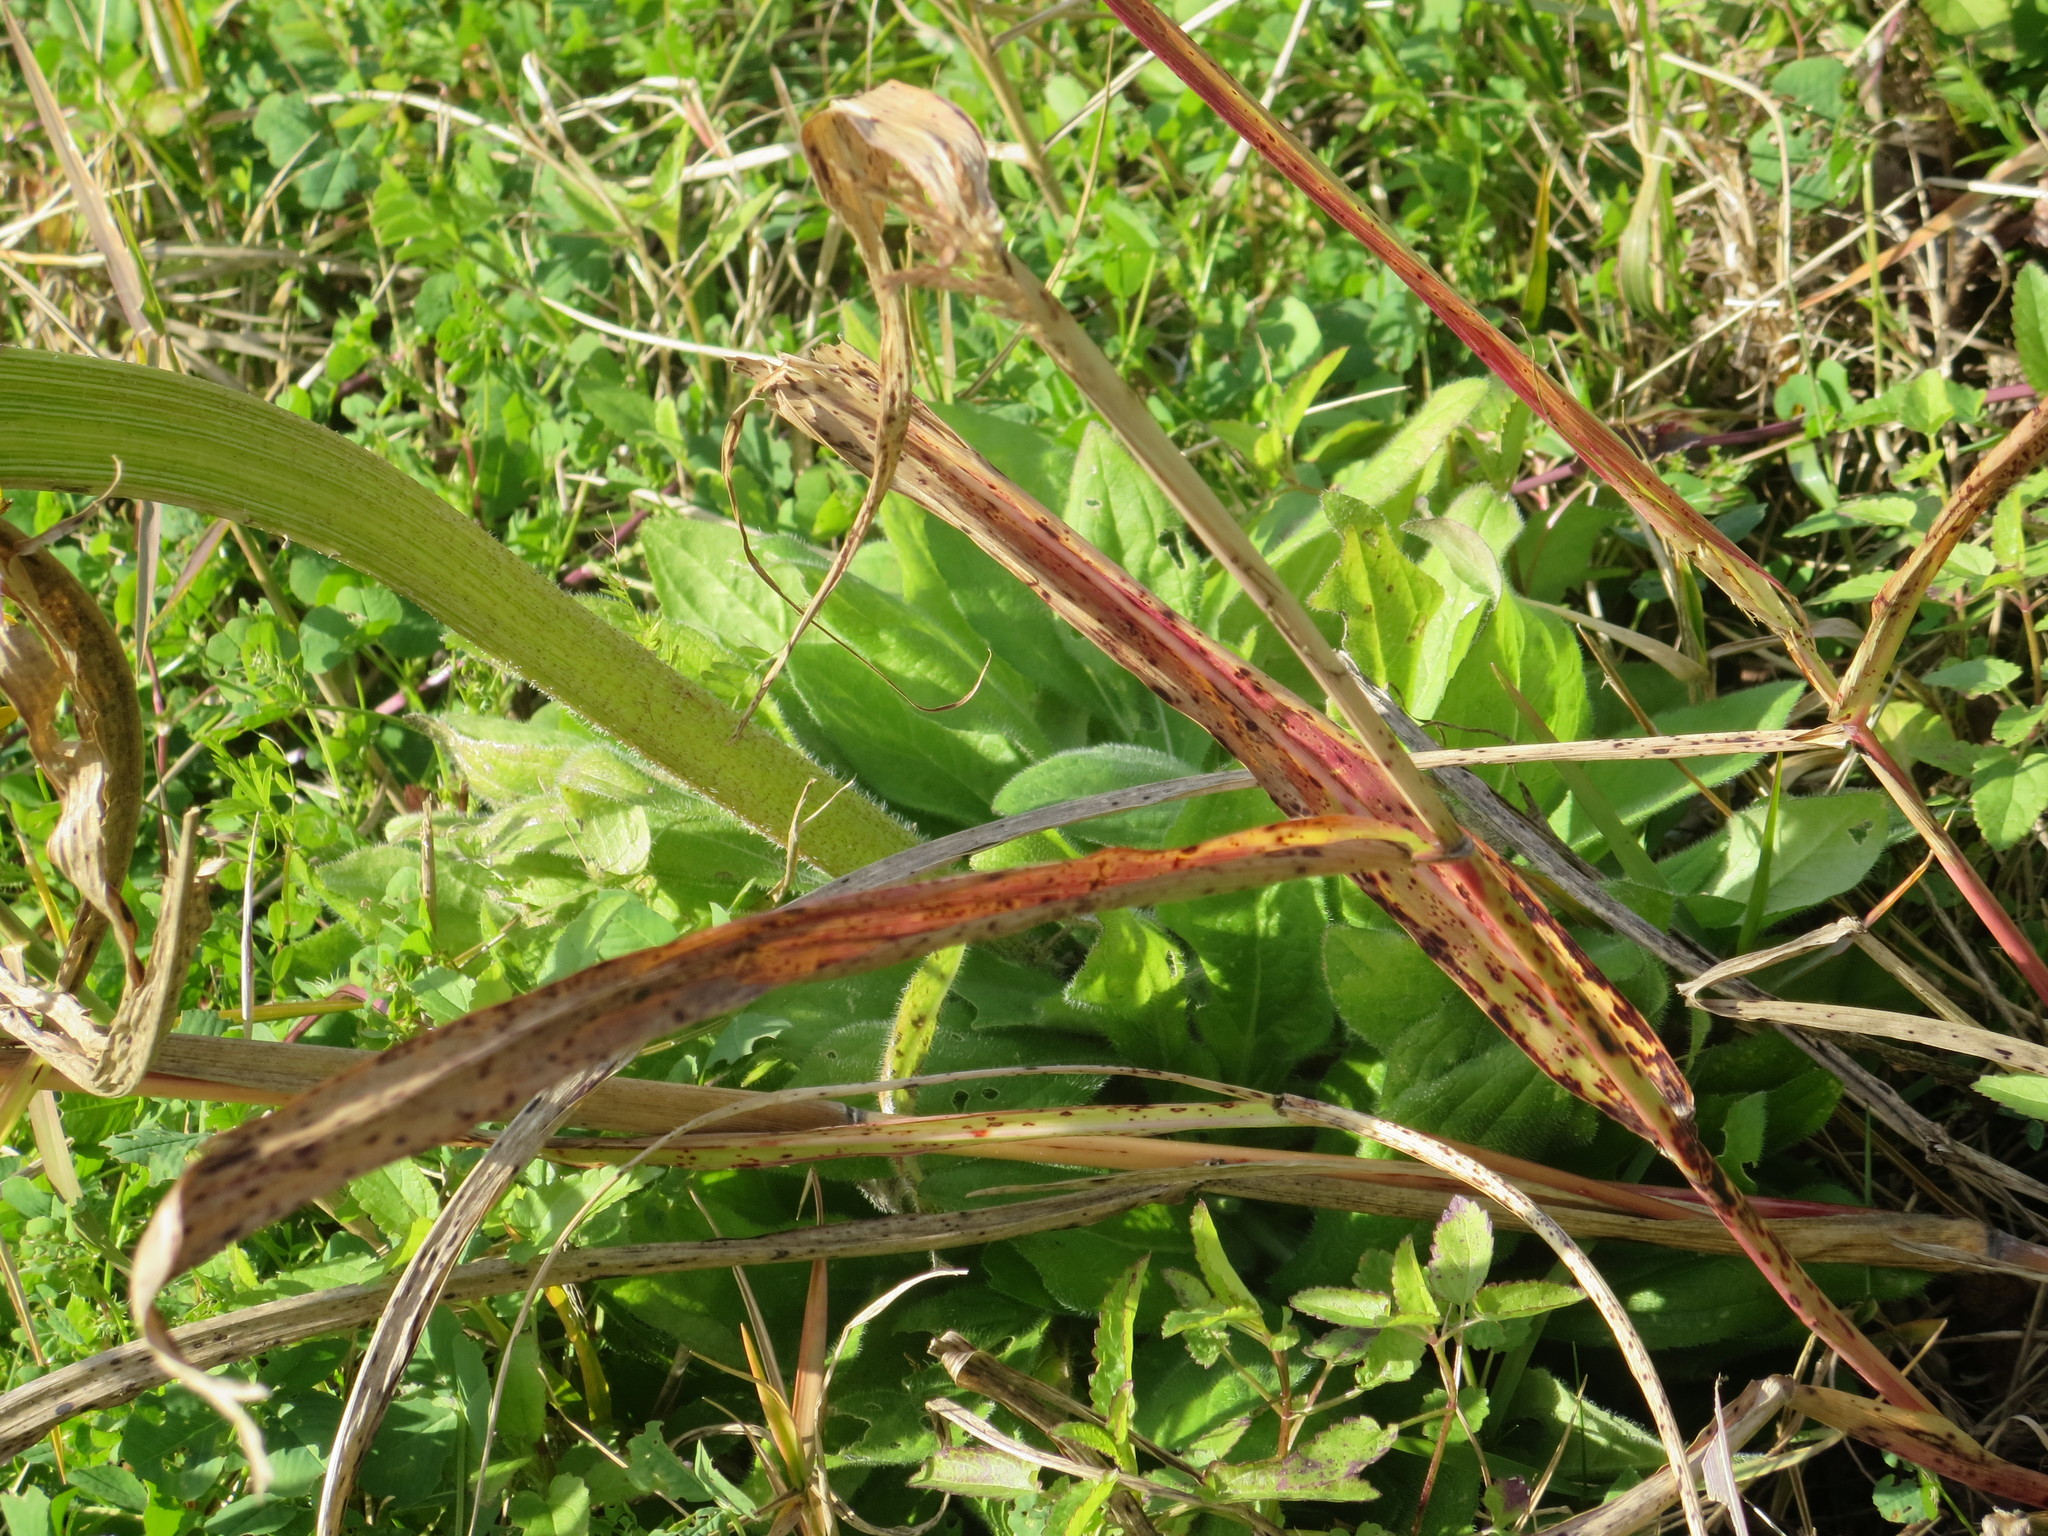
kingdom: Plantae
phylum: Tracheophyta
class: Magnoliopsida
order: Asterales
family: Asteraceae
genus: Helianthus
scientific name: Helianthus annuus
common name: Sunflower
